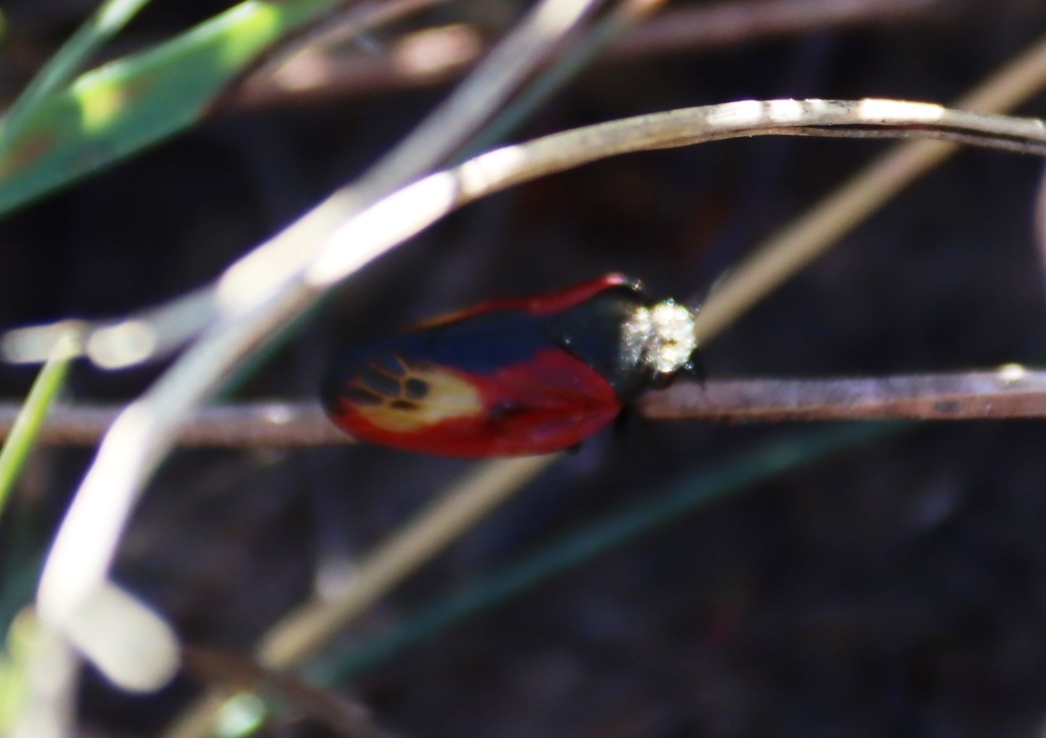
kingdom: Animalia
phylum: Arthropoda
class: Insecta
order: Hemiptera
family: Cercopidae
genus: Rhinaulax
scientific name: Rhinaulax analis
